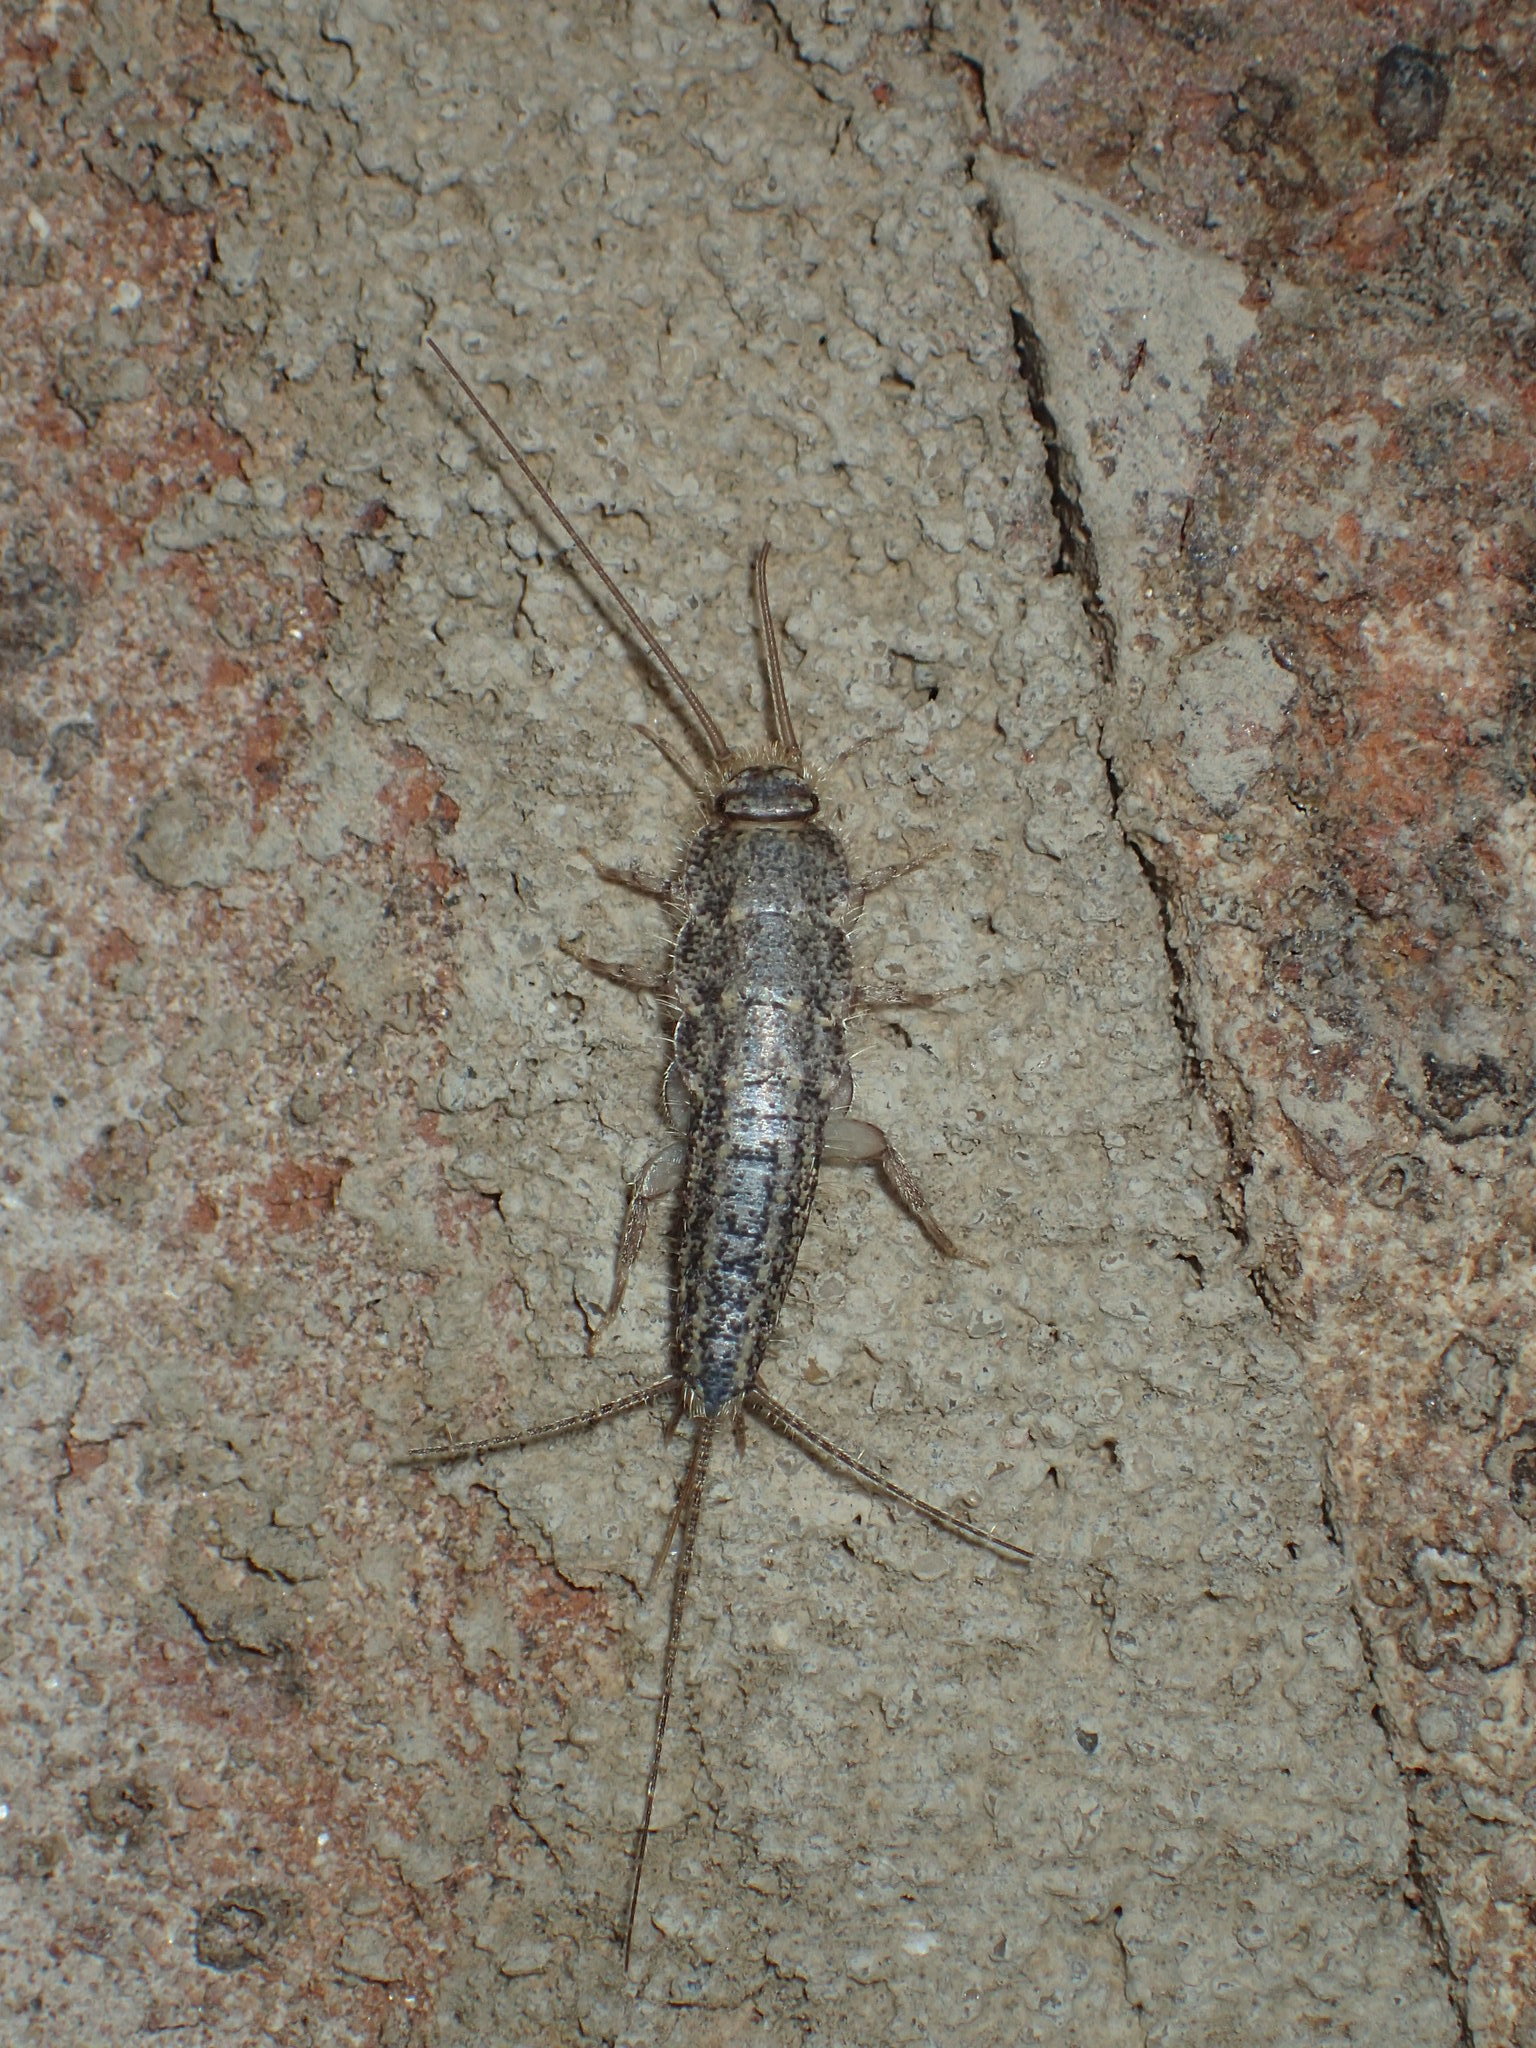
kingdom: Animalia
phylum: Arthropoda
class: Insecta
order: Zygentoma
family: Lepismatidae
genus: Ctenolepisma
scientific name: Ctenolepisma lineata
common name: Four-lined silverfish
